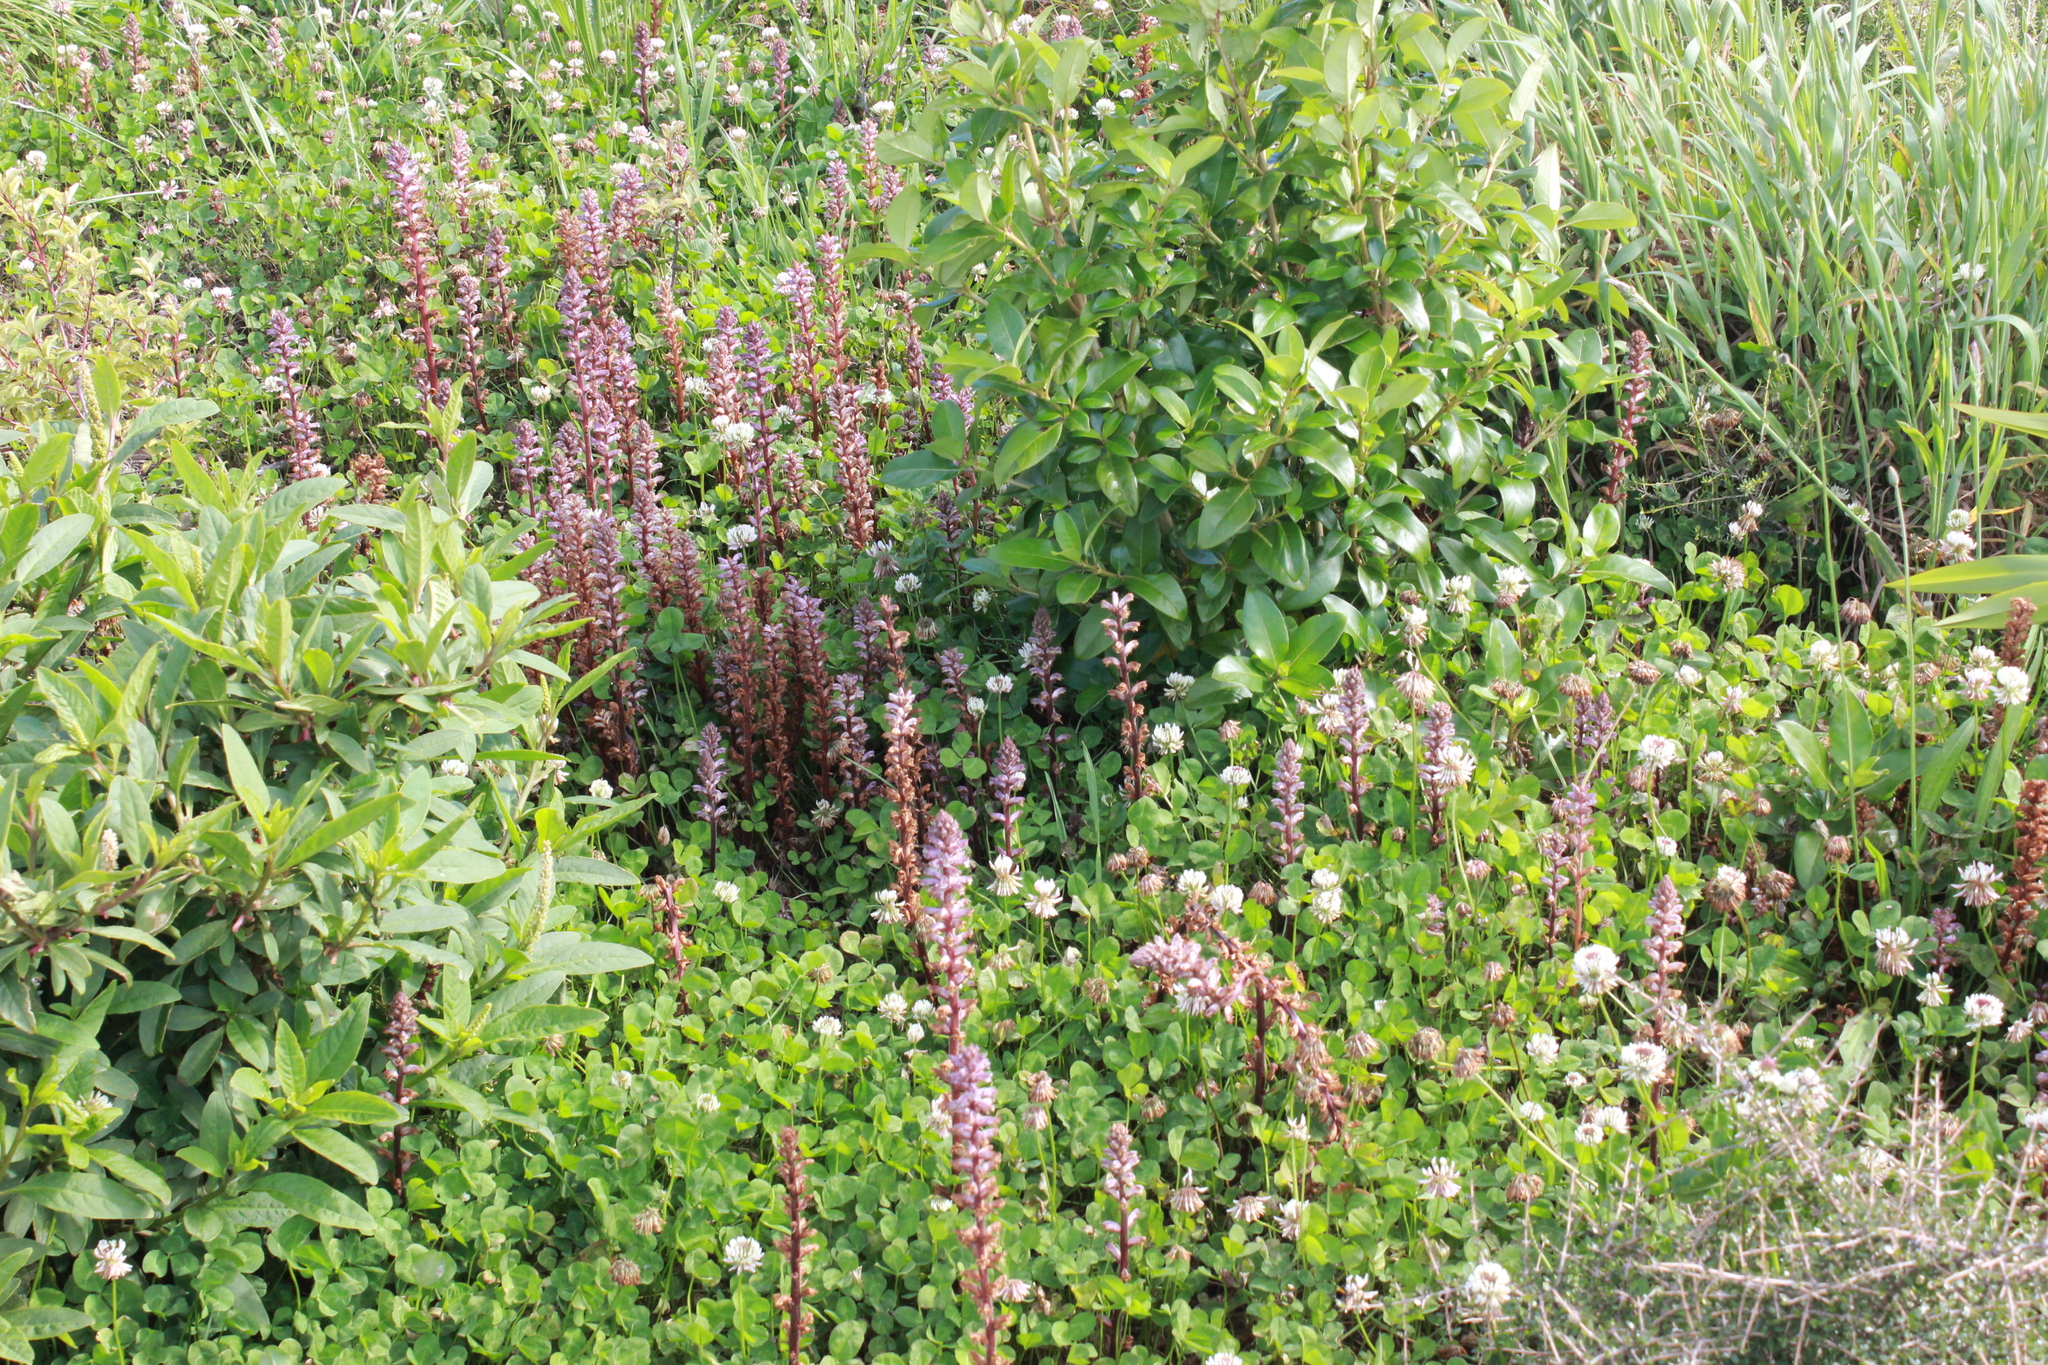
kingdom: Plantae
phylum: Tracheophyta
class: Magnoliopsida
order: Lamiales
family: Orobanchaceae
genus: Orobanche
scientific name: Orobanche minor
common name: Common broomrape
